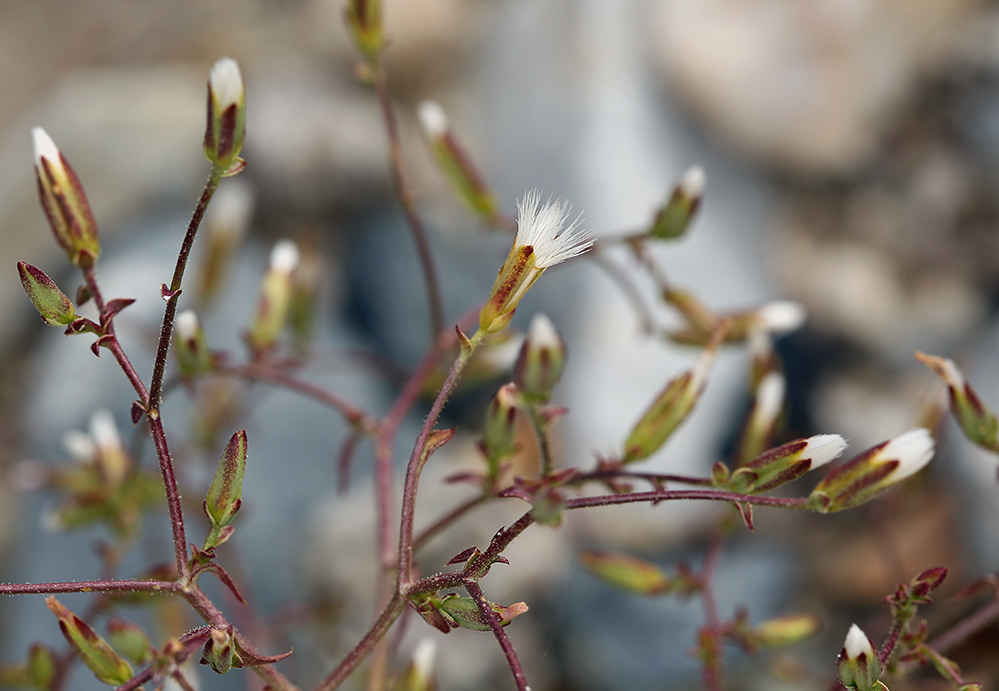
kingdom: Plantae
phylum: Tracheophyta
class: Magnoliopsida
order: Asterales
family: Asteraceae
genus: Lygodesmia
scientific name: Lygodesmia exigua
